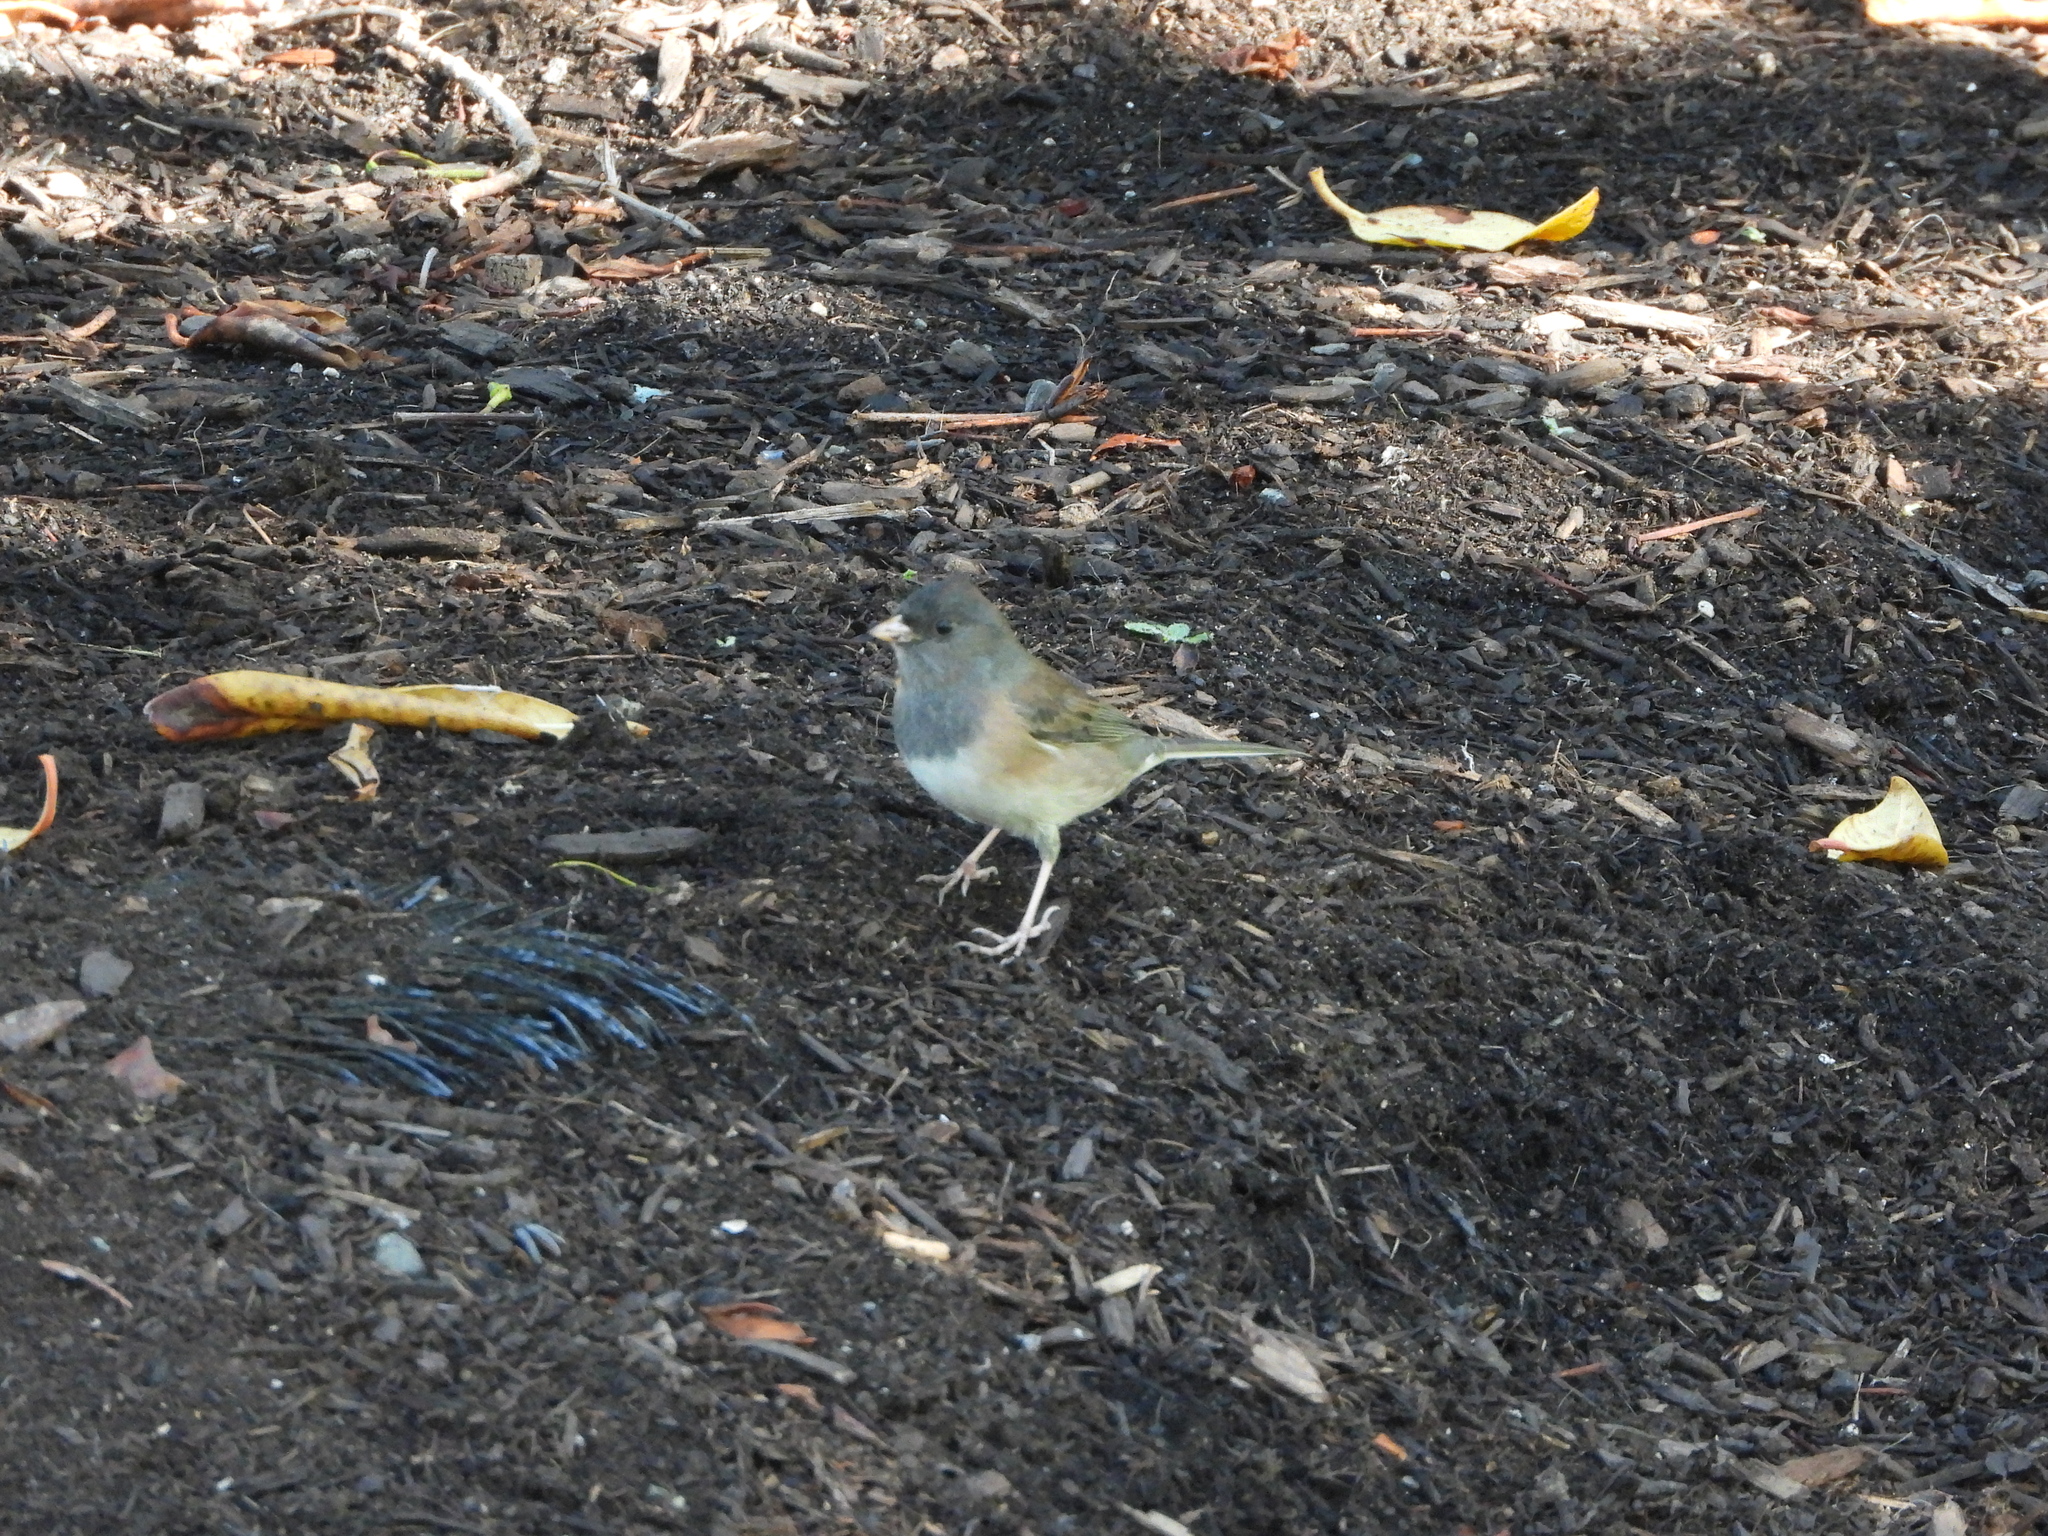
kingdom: Animalia
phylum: Chordata
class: Aves
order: Passeriformes
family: Passerellidae
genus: Junco
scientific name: Junco hyemalis
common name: Dark-eyed junco
